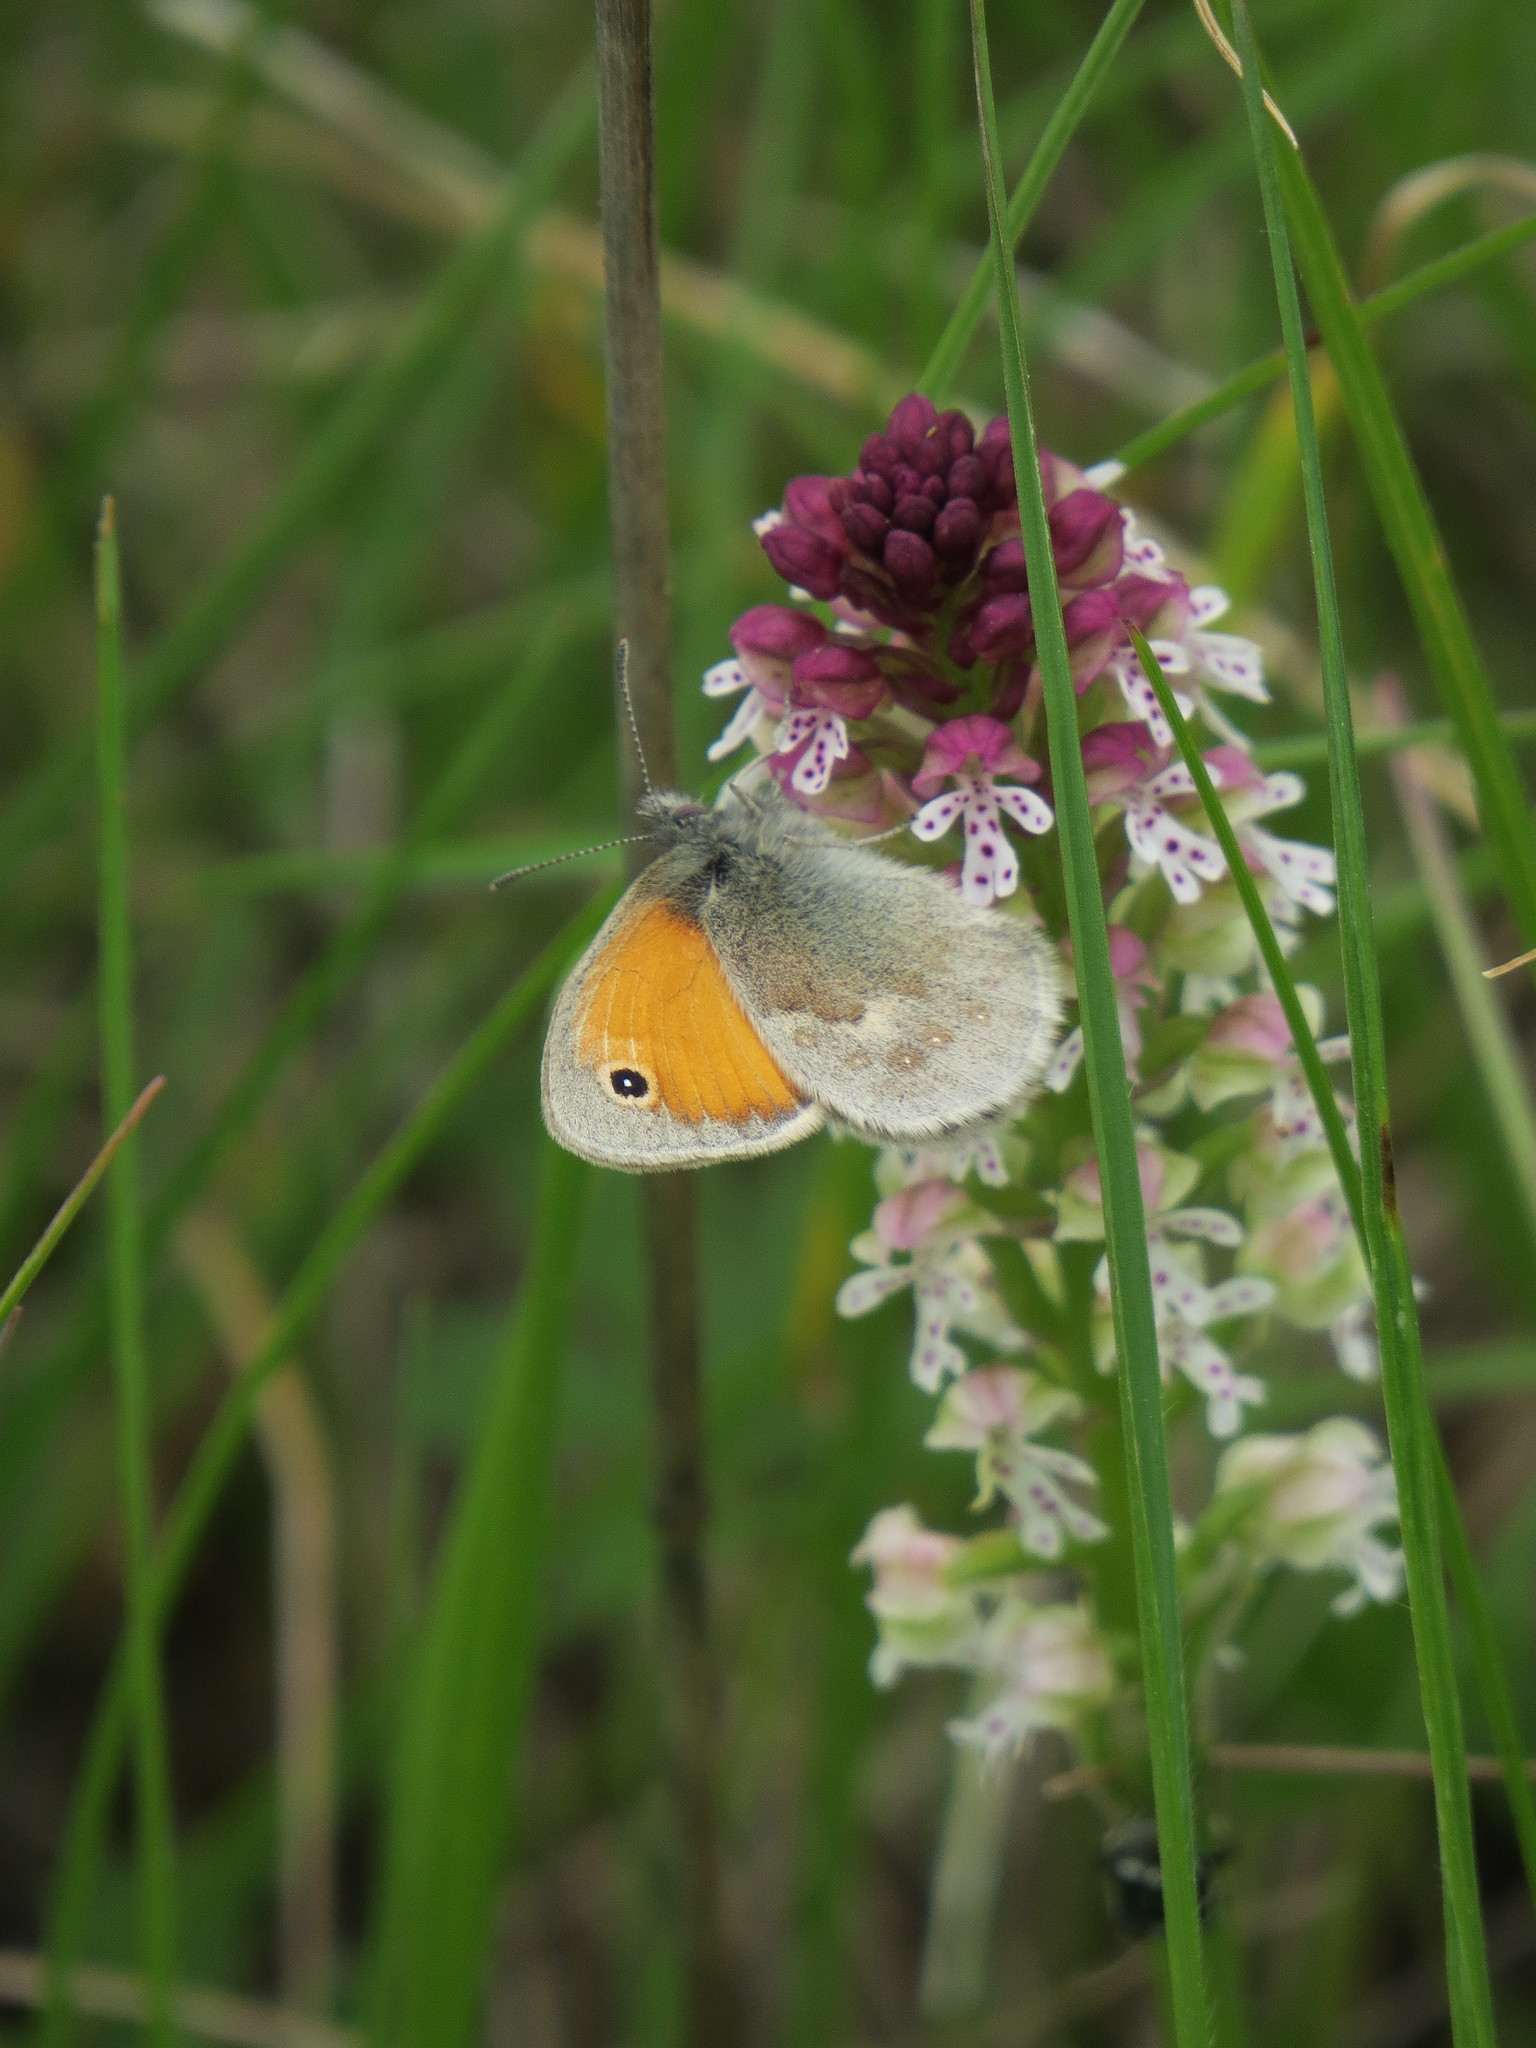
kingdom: Animalia
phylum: Arthropoda
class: Insecta
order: Lepidoptera
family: Nymphalidae
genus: Coenonympha
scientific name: Coenonympha pamphilus
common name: Small heath
